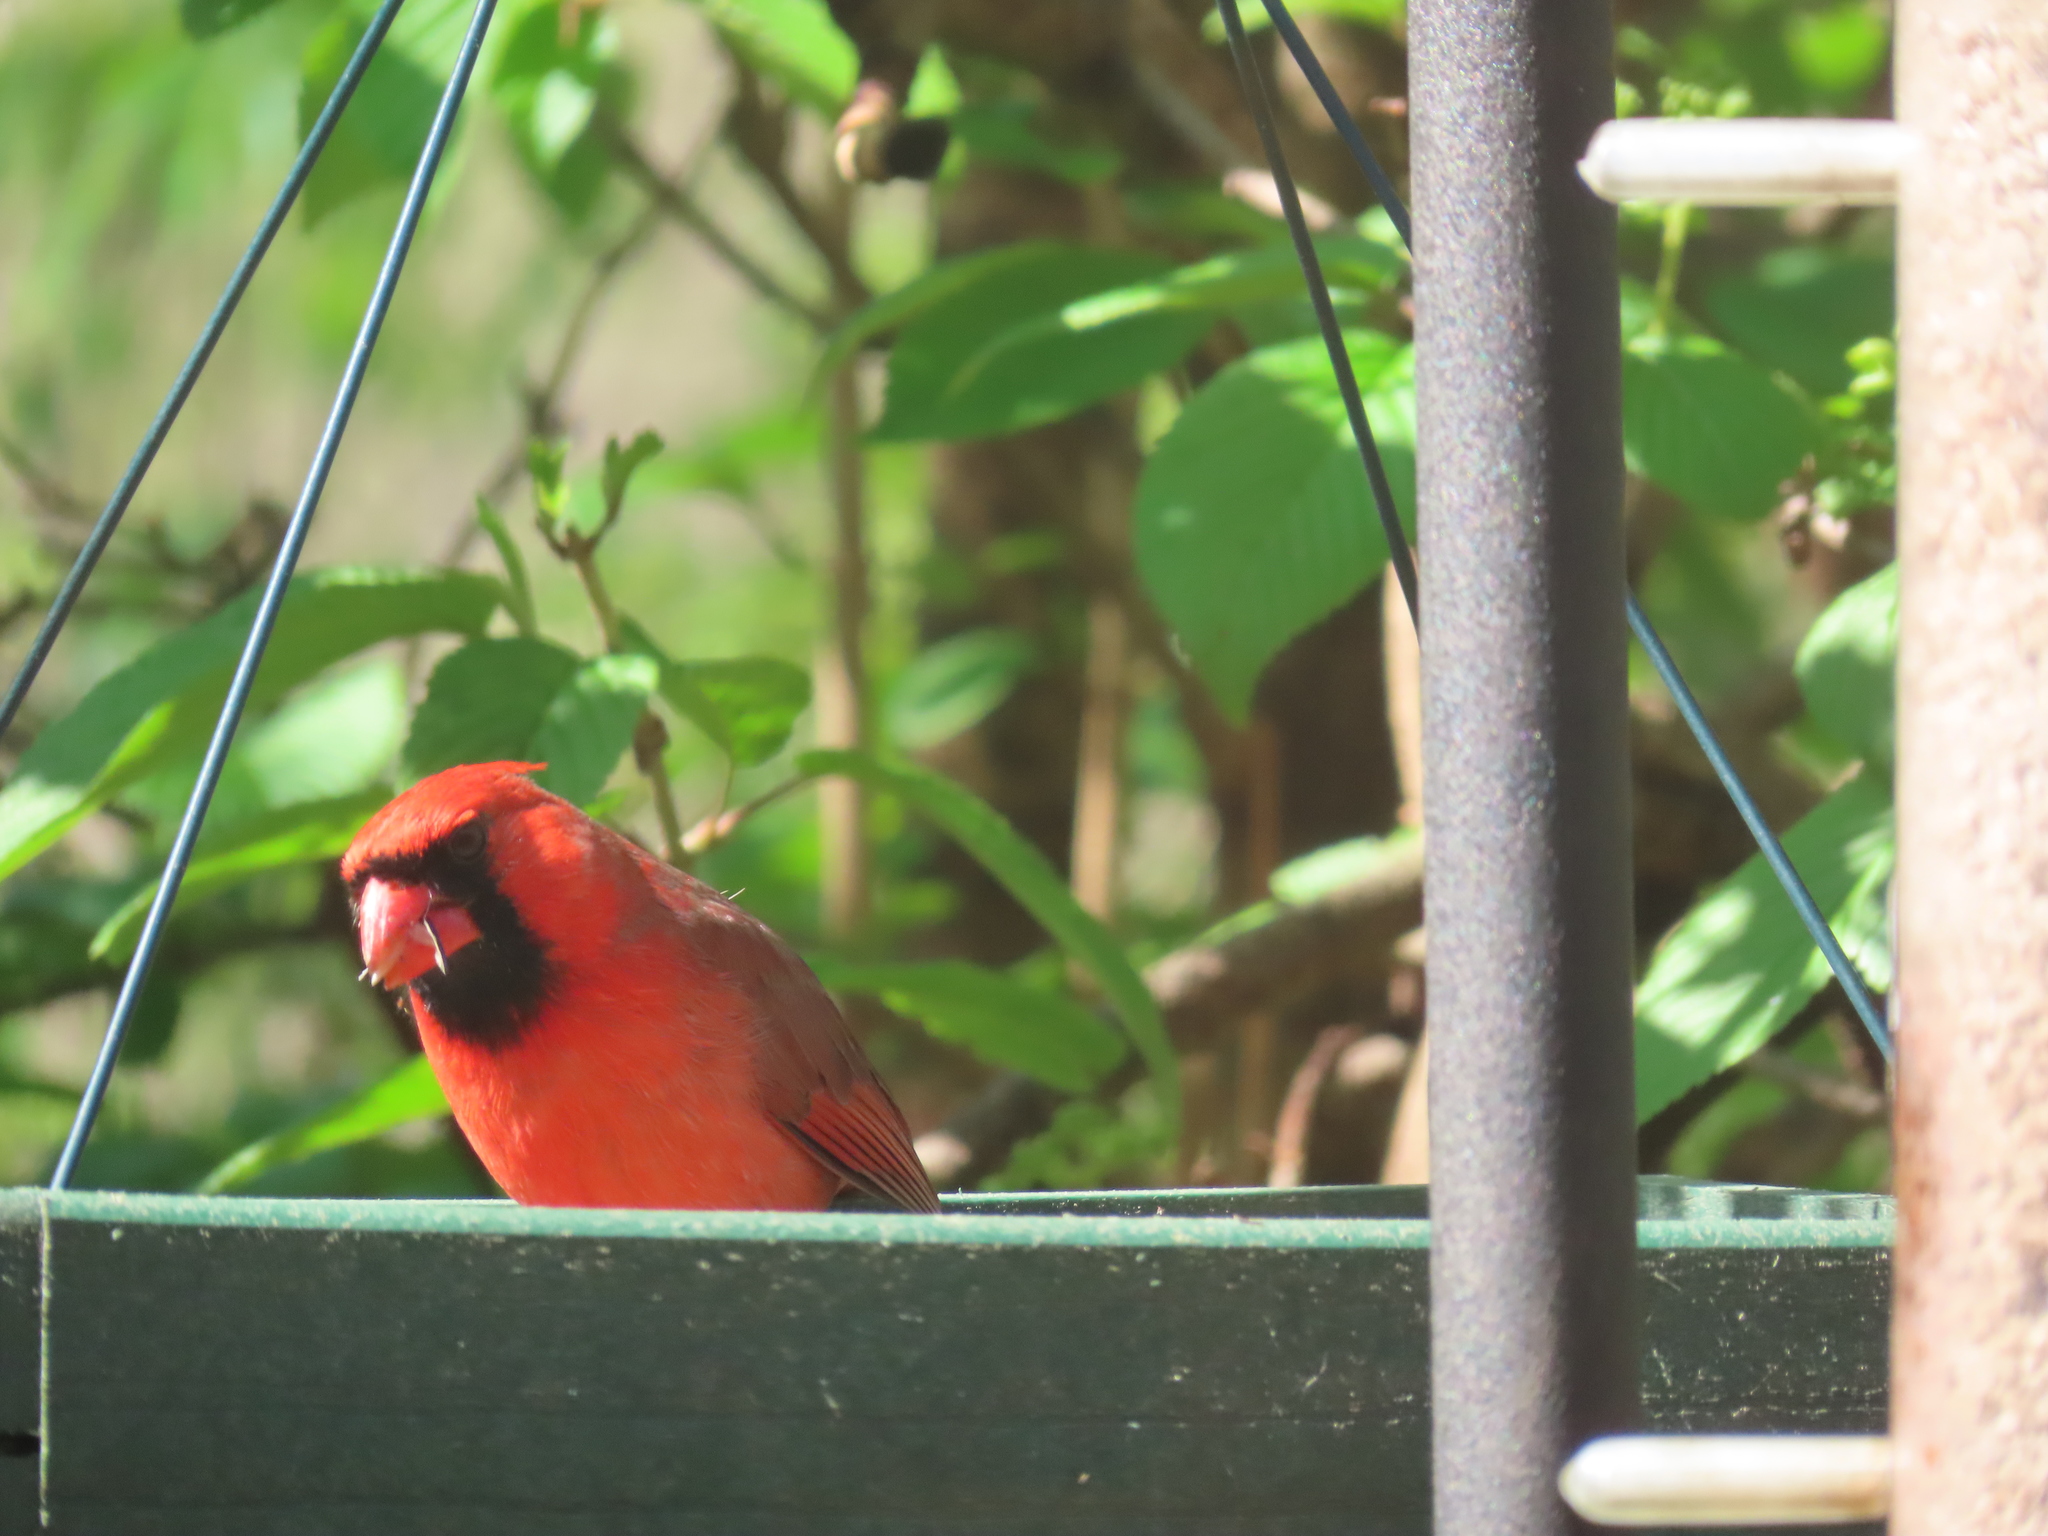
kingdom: Animalia
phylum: Chordata
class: Aves
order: Passeriformes
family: Cardinalidae
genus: Cardinalis
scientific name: Cardinalis cardinalis
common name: Northern cardinal
